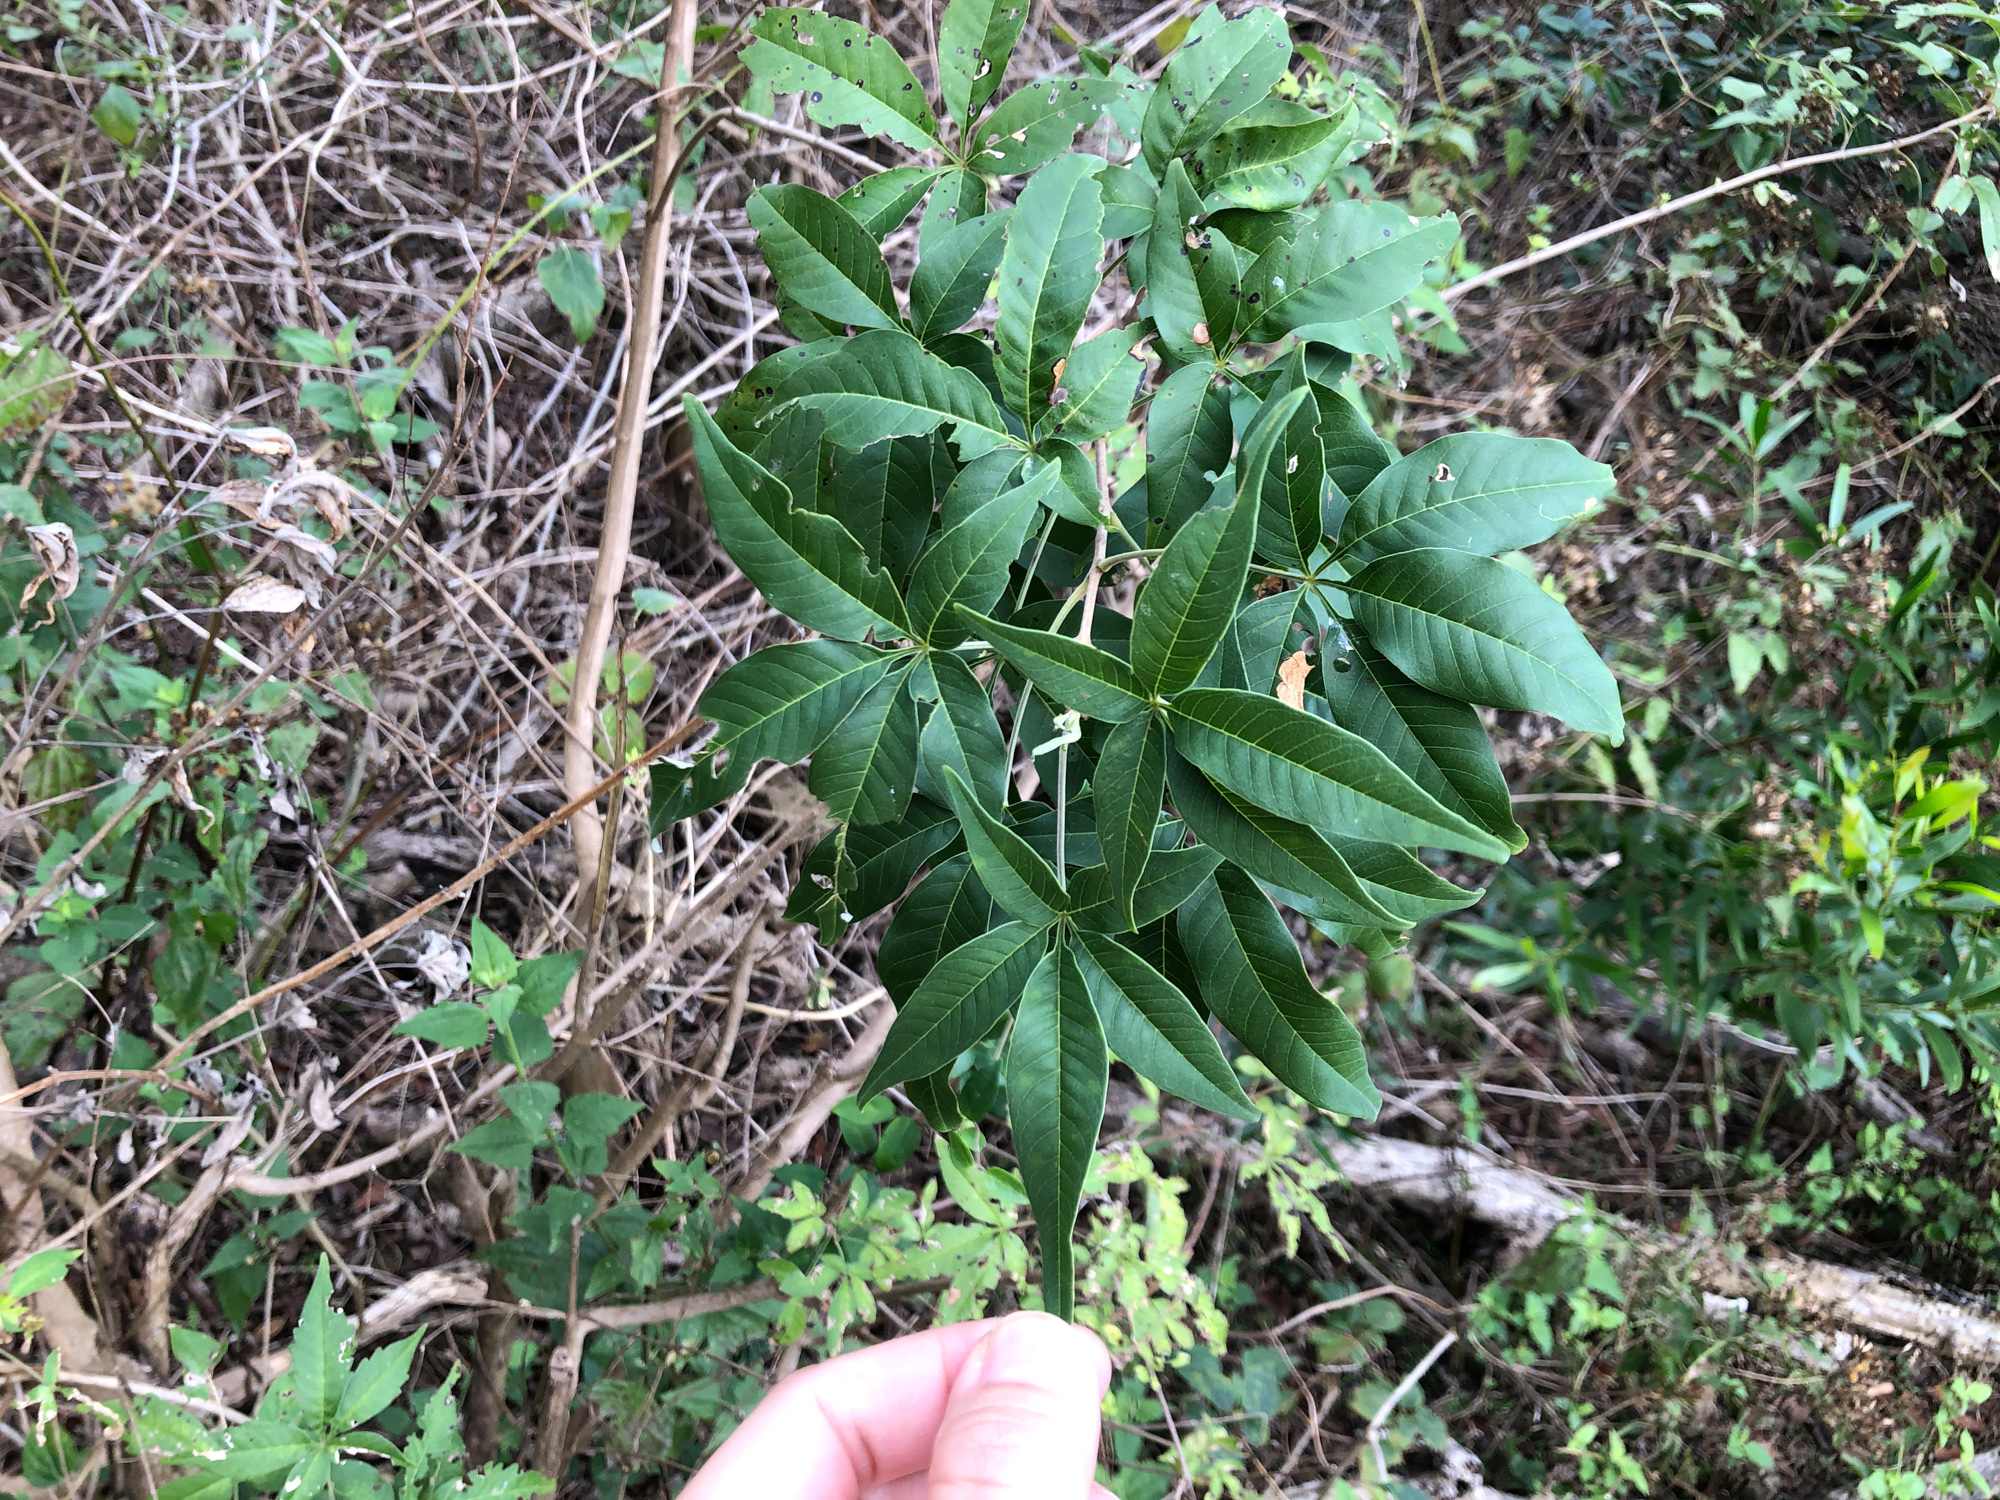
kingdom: Plantae
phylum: Tracheophyta
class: Magnoliopsida
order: Lamiales
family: Lamiaceae
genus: Vitex
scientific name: Vitex negundo
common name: Chinese chastetree
